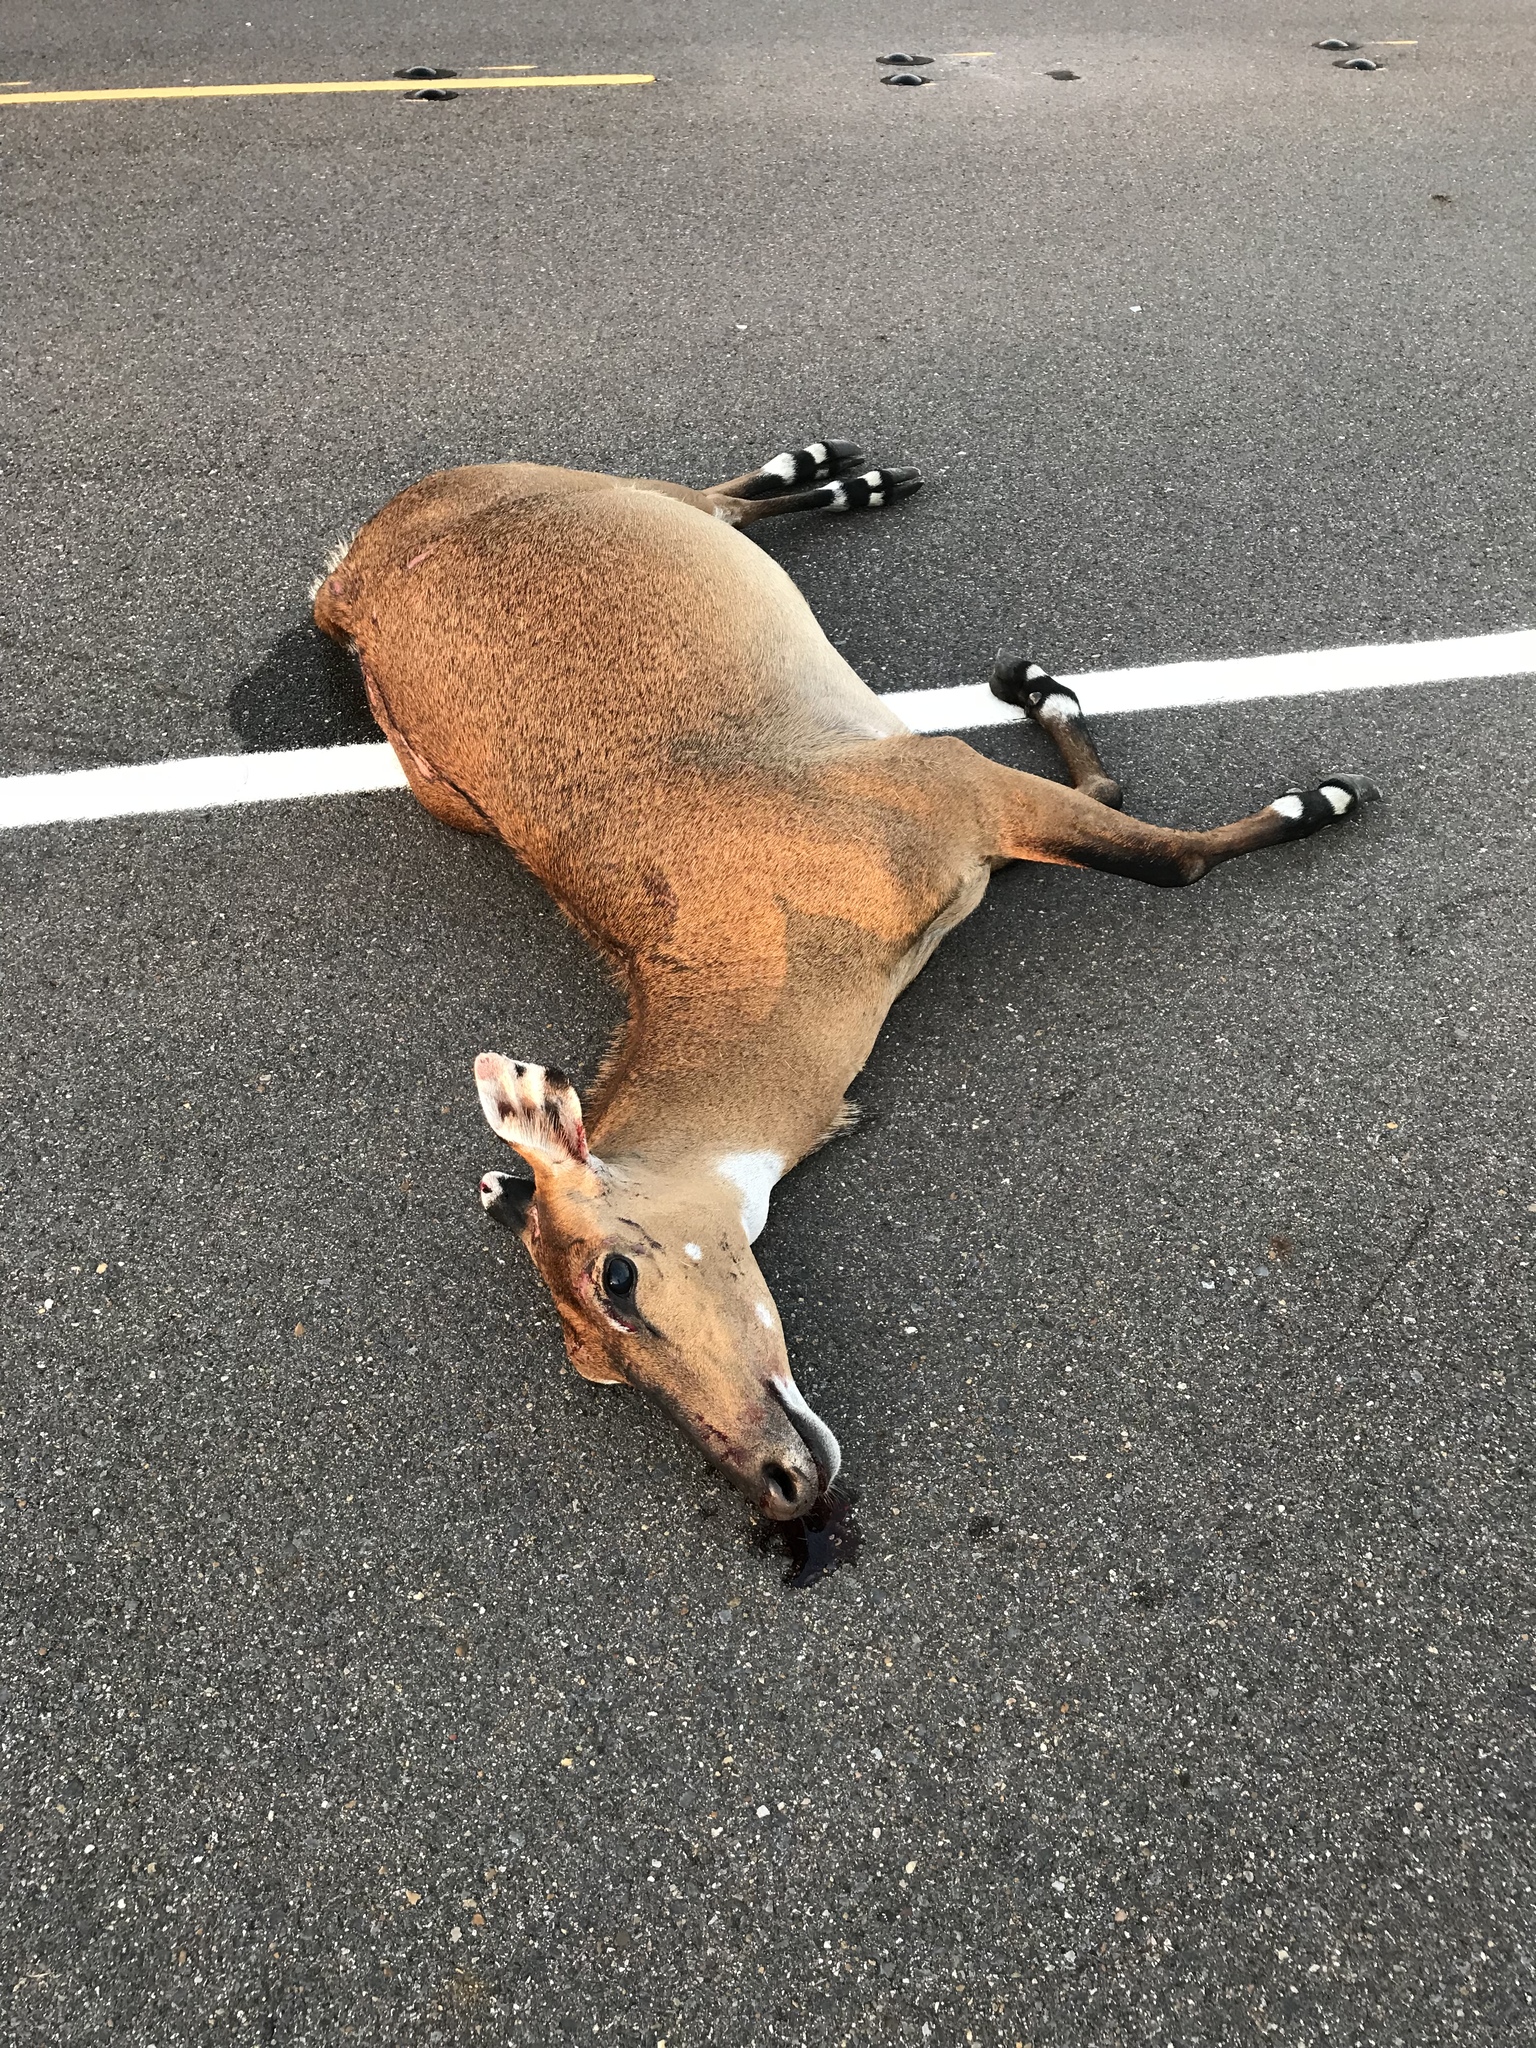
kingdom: Animalia
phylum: Chordata
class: Mammalia
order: Artiodactyla
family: Bovidae
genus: Boselaphus
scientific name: Boselaphus tragocamelus
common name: Nilgai
